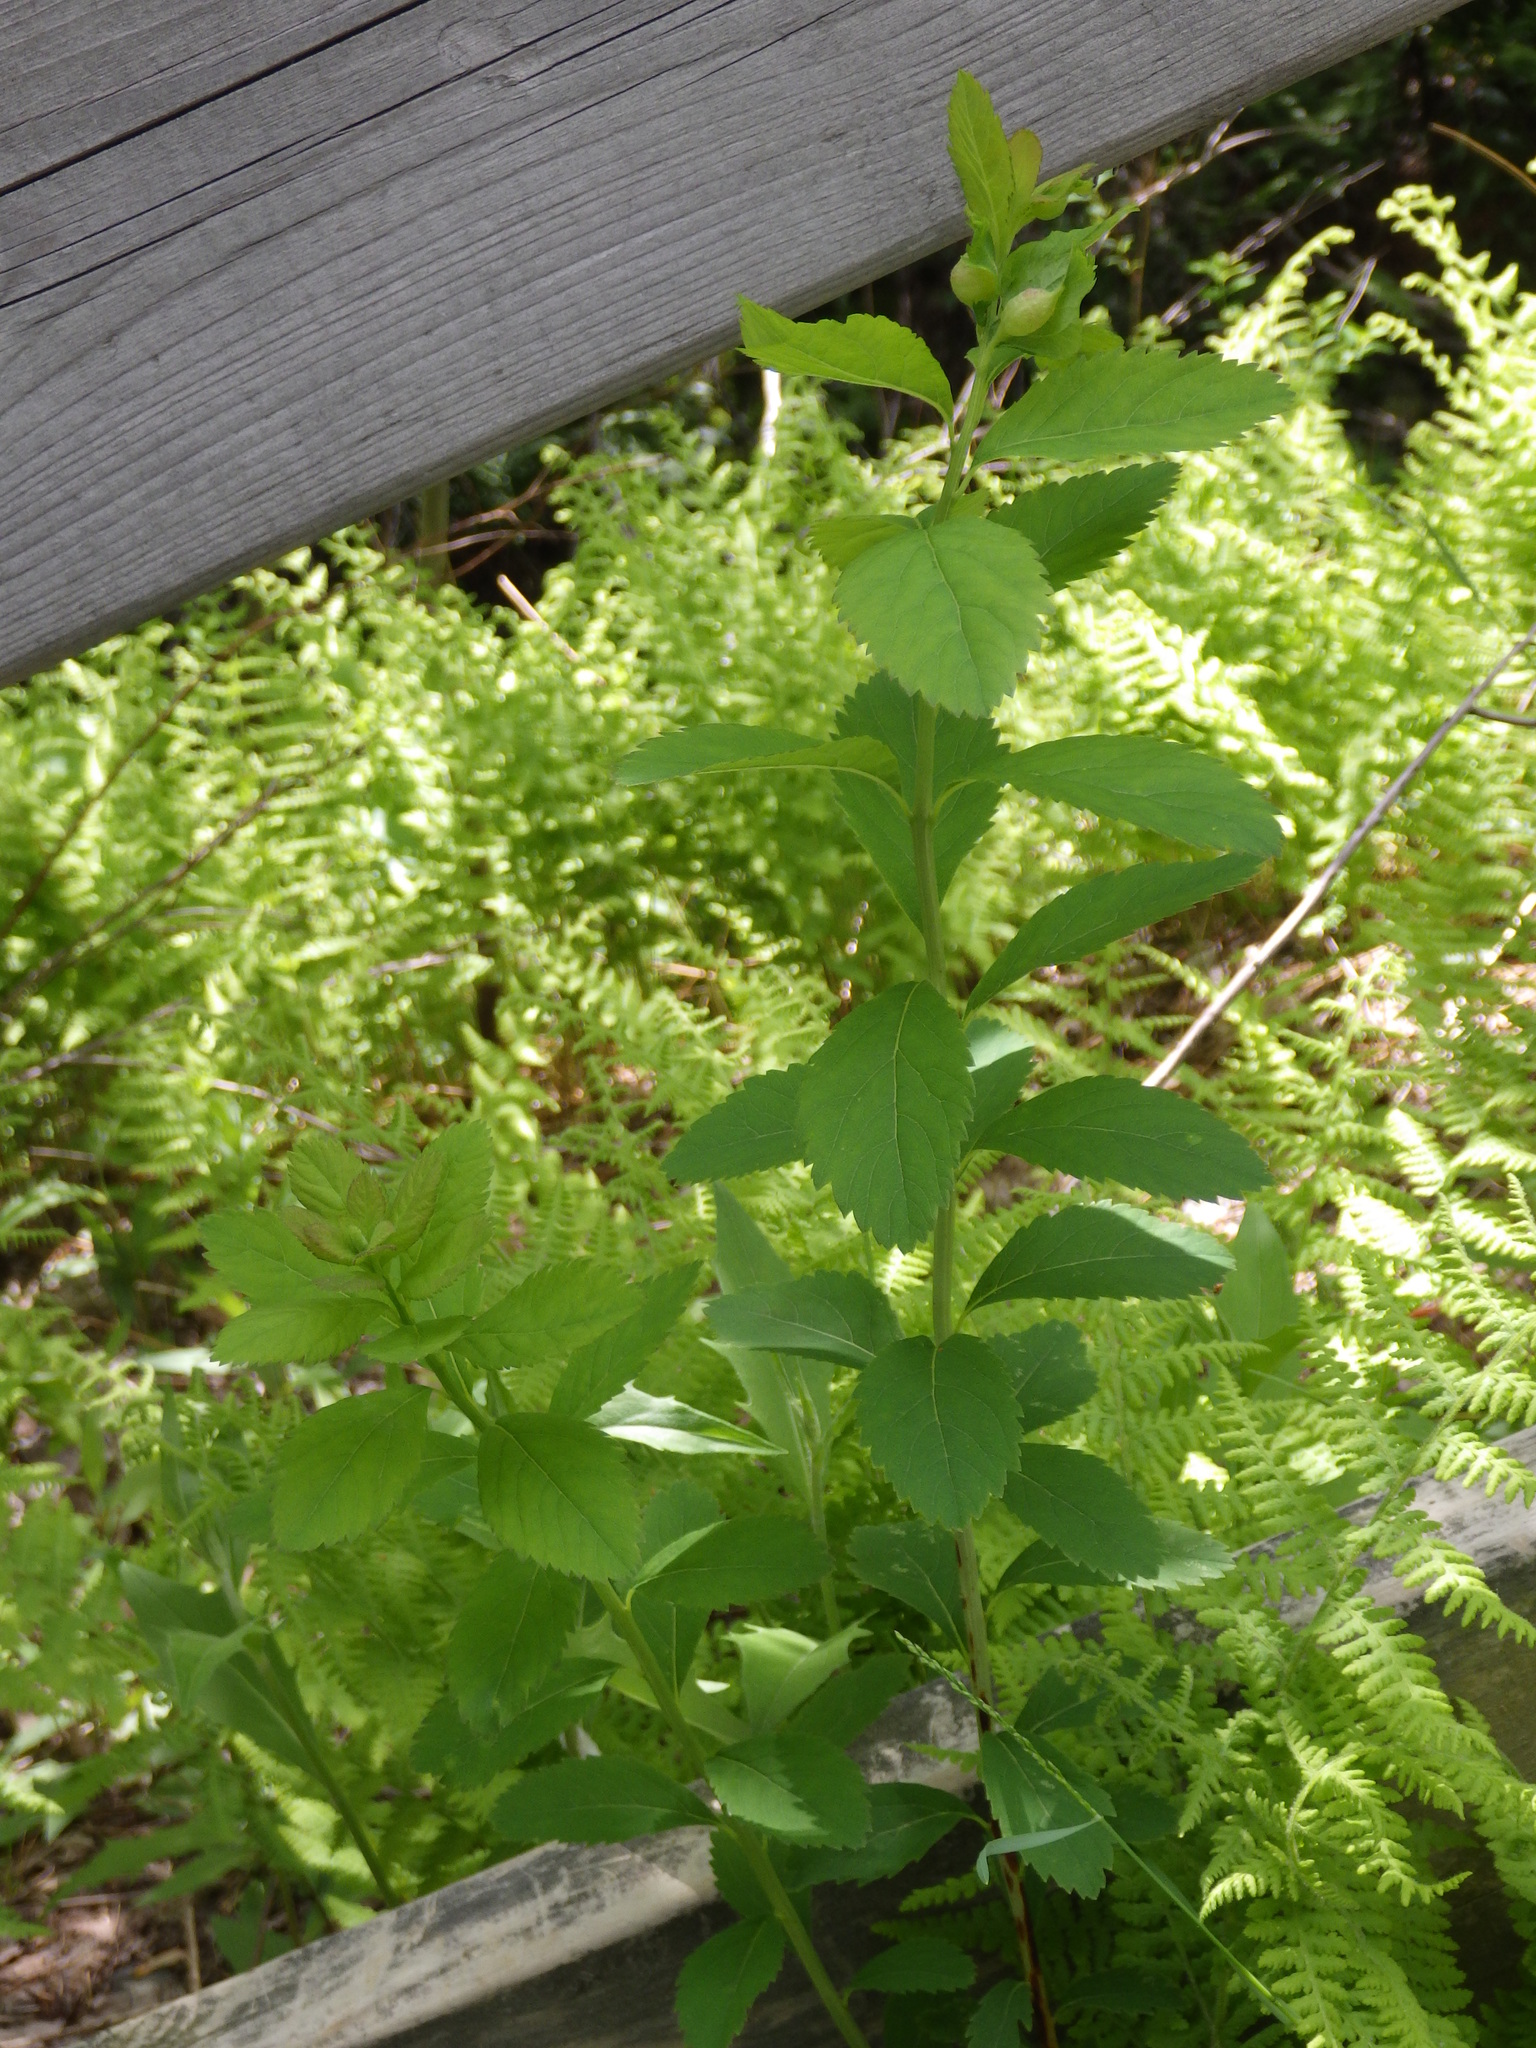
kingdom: Animalia
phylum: Arthropoda
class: Insecta
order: Diptera
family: Cecidomyiidae
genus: Dasineura
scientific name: Dasineura salicifoliae
